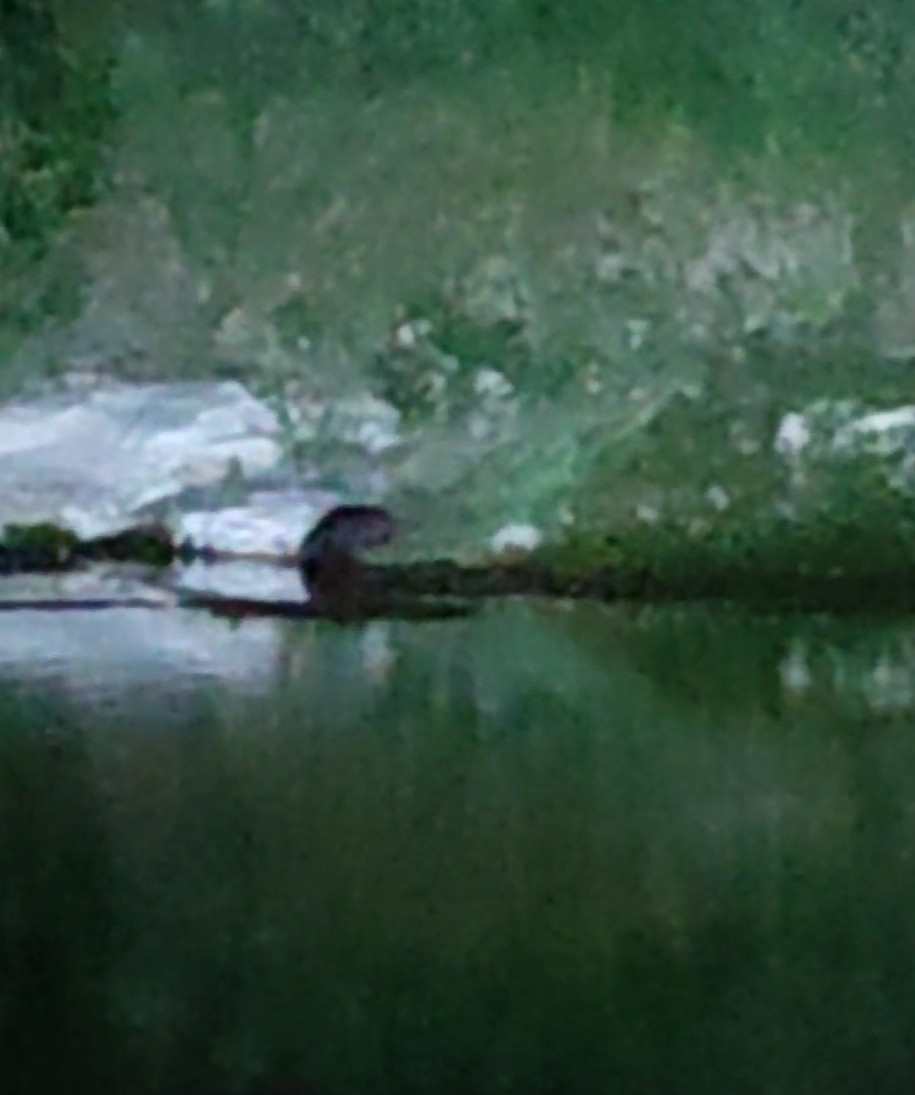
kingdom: Animalia
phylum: Chordata
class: Mammalia
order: Rodentia
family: Castoridae
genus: Castor
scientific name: Castor fiber
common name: Eurasian beaver
